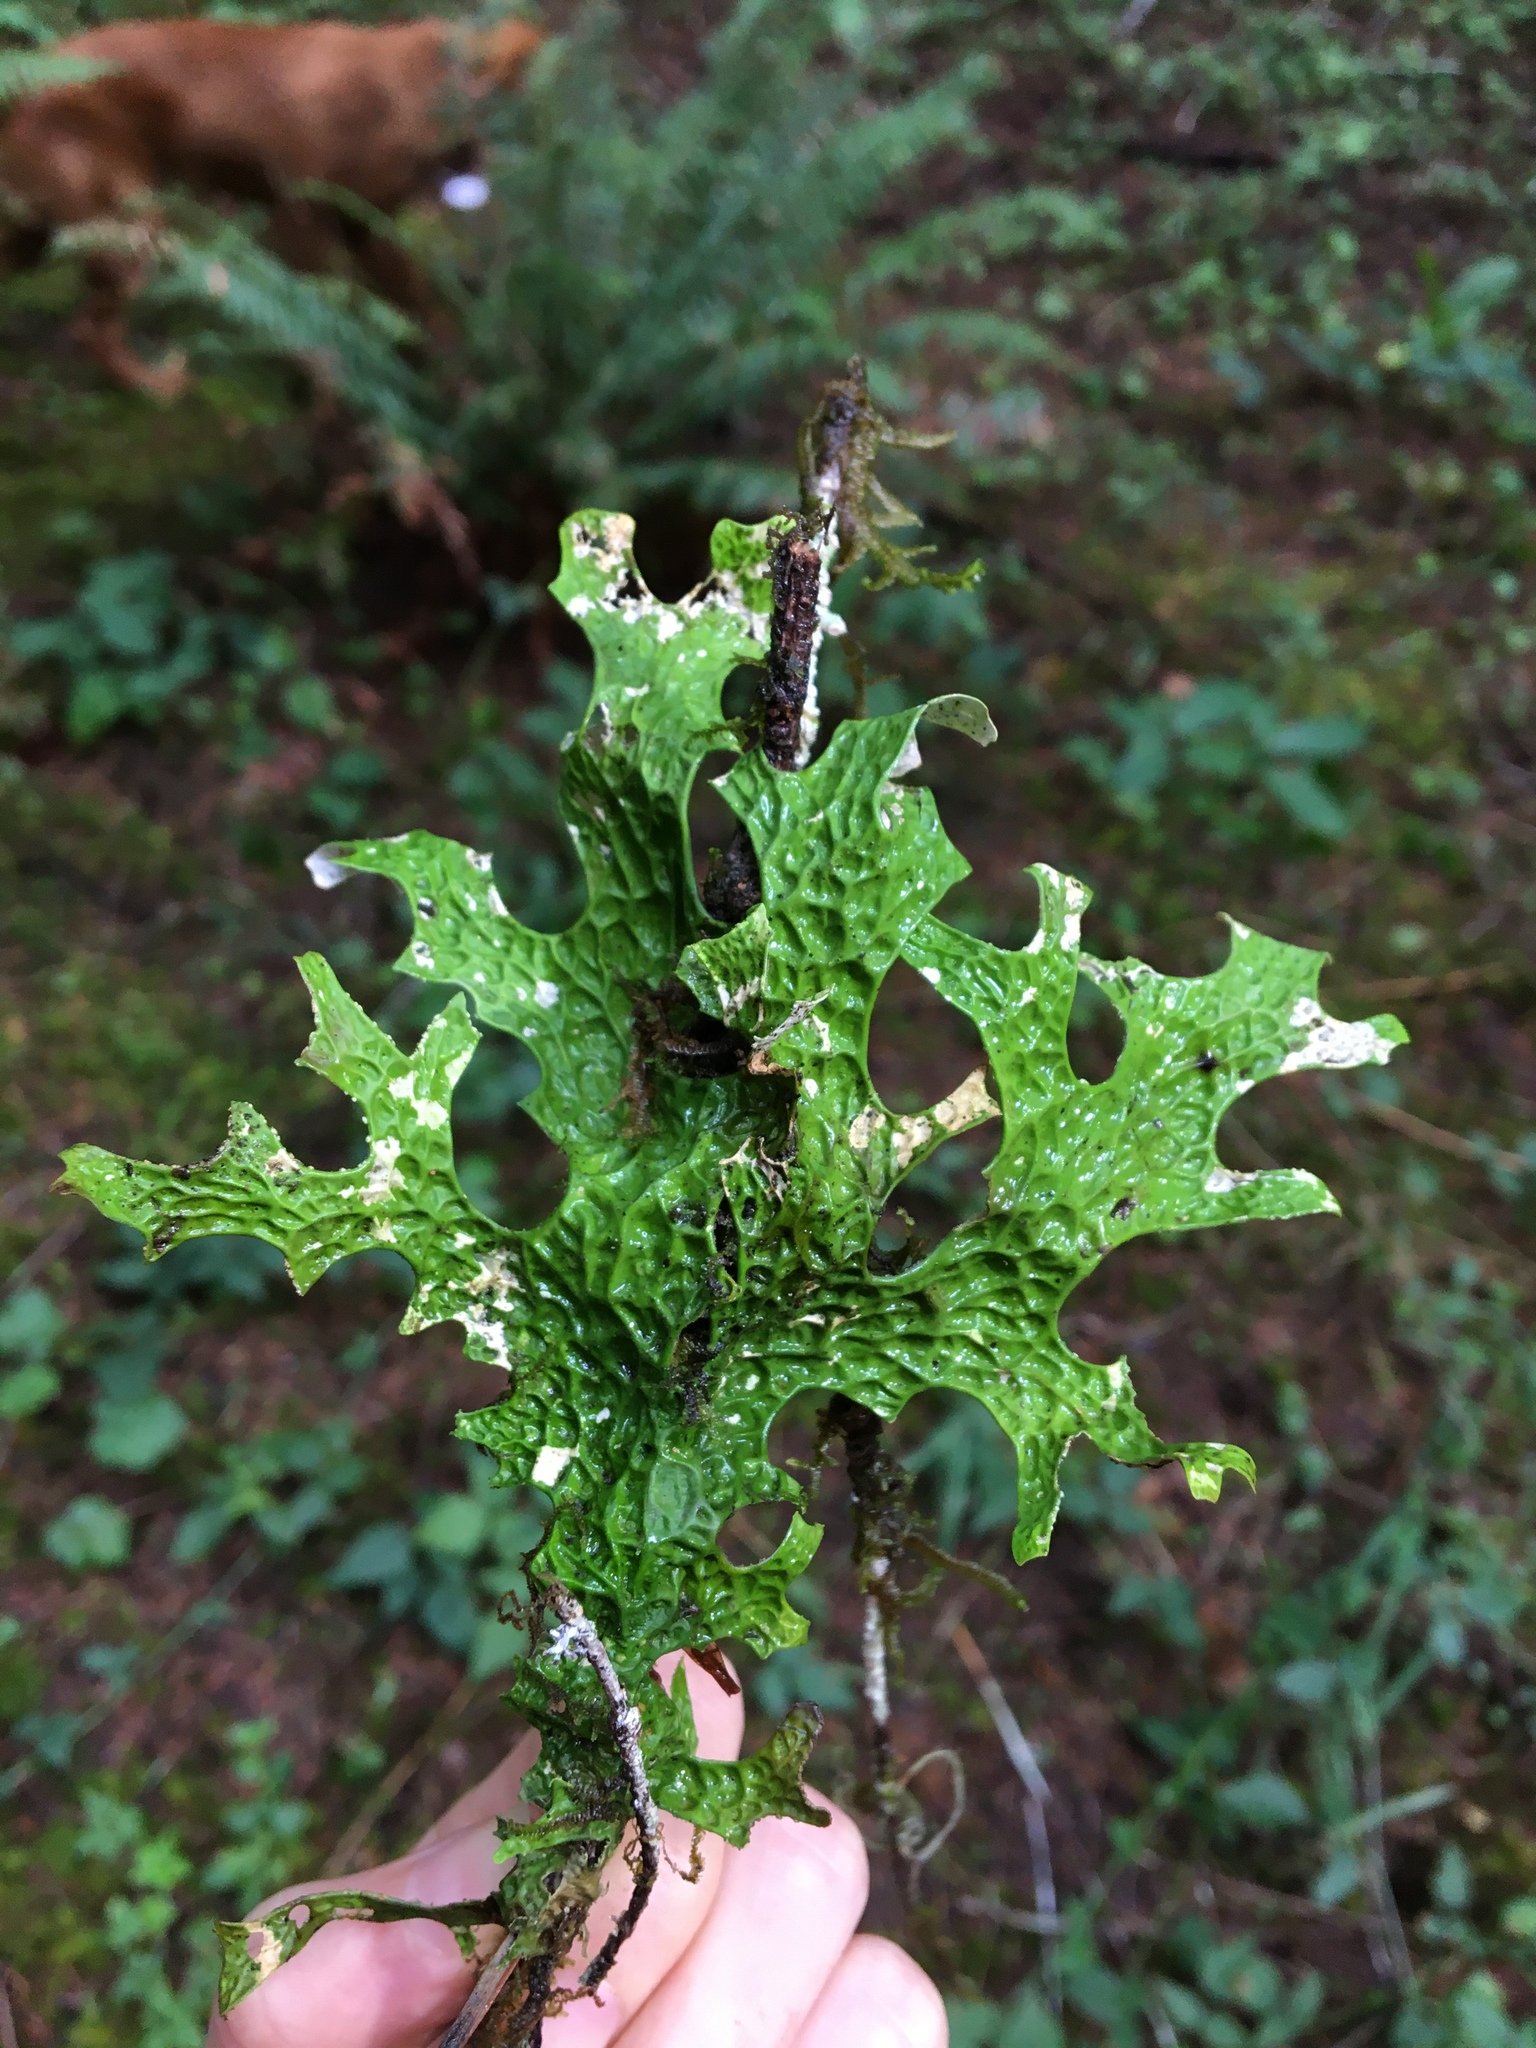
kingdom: Fungi
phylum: Ascomycota
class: Lecanoromycetes
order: Peltigerales
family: Lobariaceae
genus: Lobaria
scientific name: Lobaria pulmonaria
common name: Lungwort
